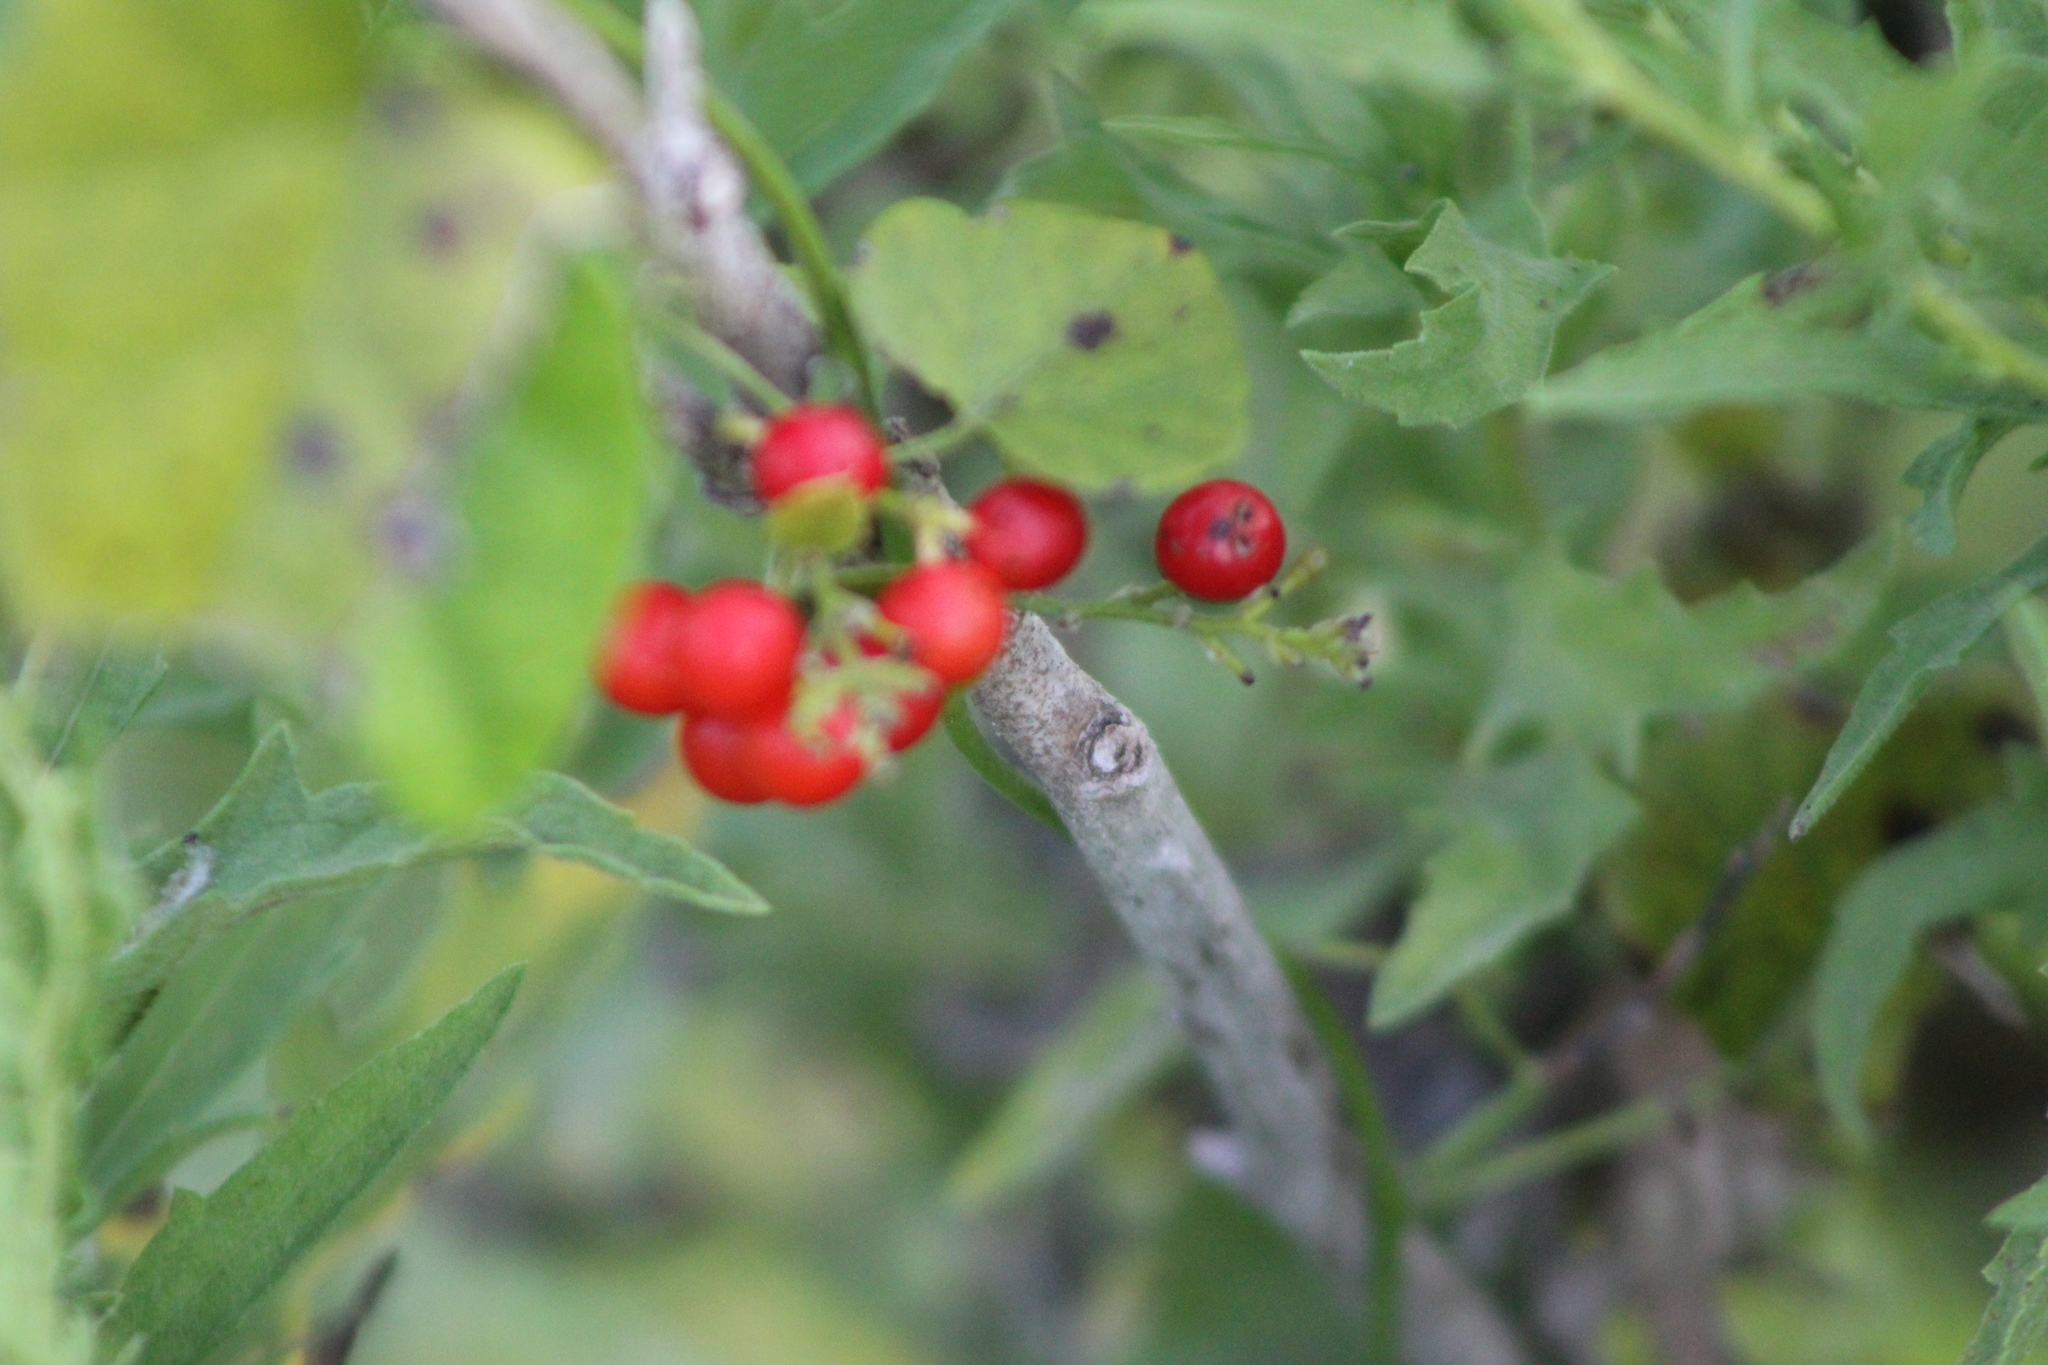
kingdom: Plantae
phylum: Tracheophyta
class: Magnoliopsida
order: Ranunculales
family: Menispermaceae
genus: Cocculus
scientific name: Cocculus carolinus
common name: Carolina moonseed
